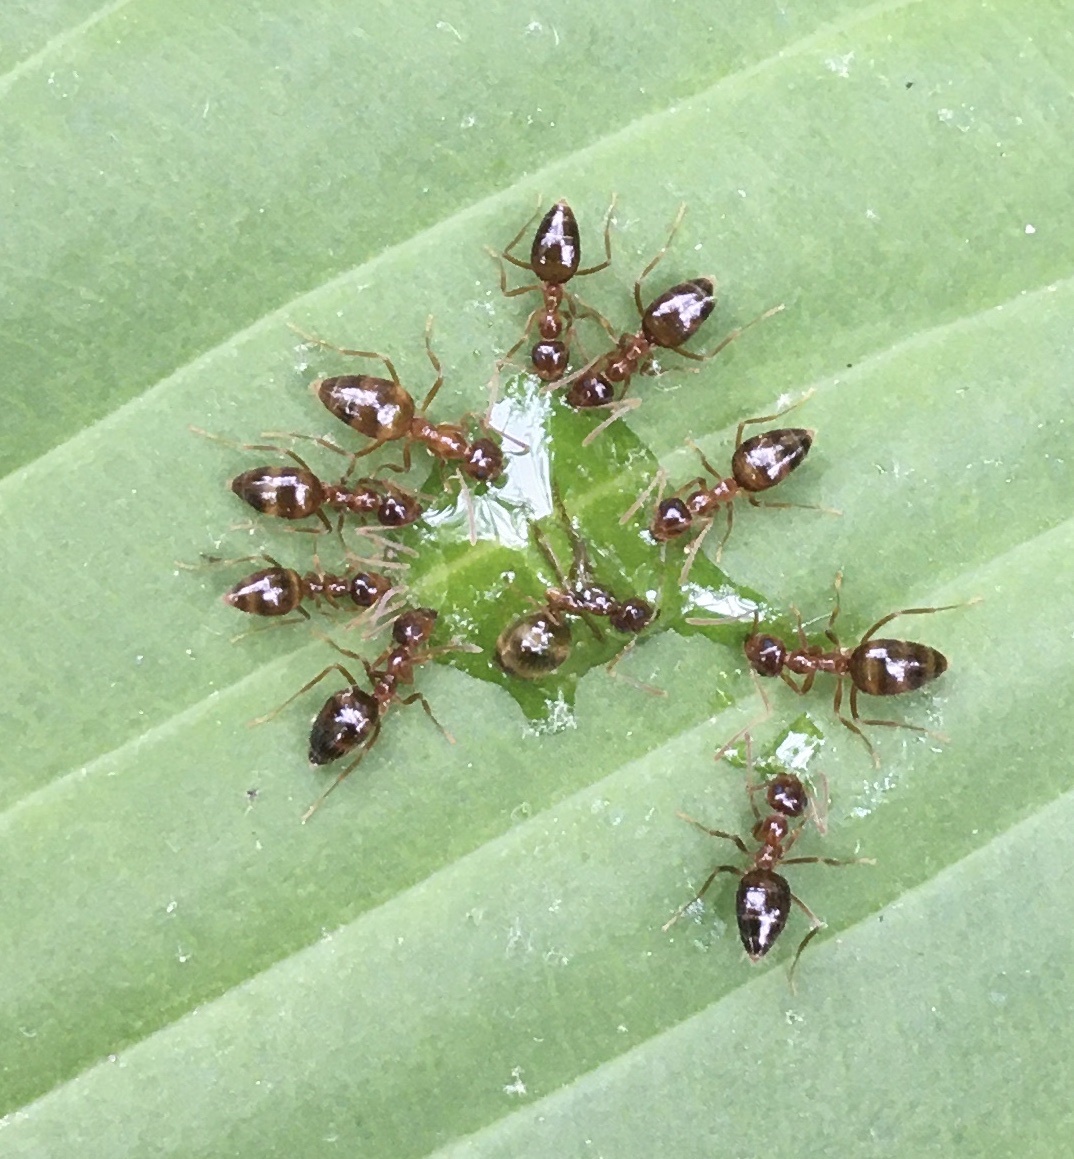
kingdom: Animalia
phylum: Arthropoda
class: Insecta
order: Hymenoptera
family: Formicidae
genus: Prenolepis
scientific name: Prenolepis imparis
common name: Small honey ant
